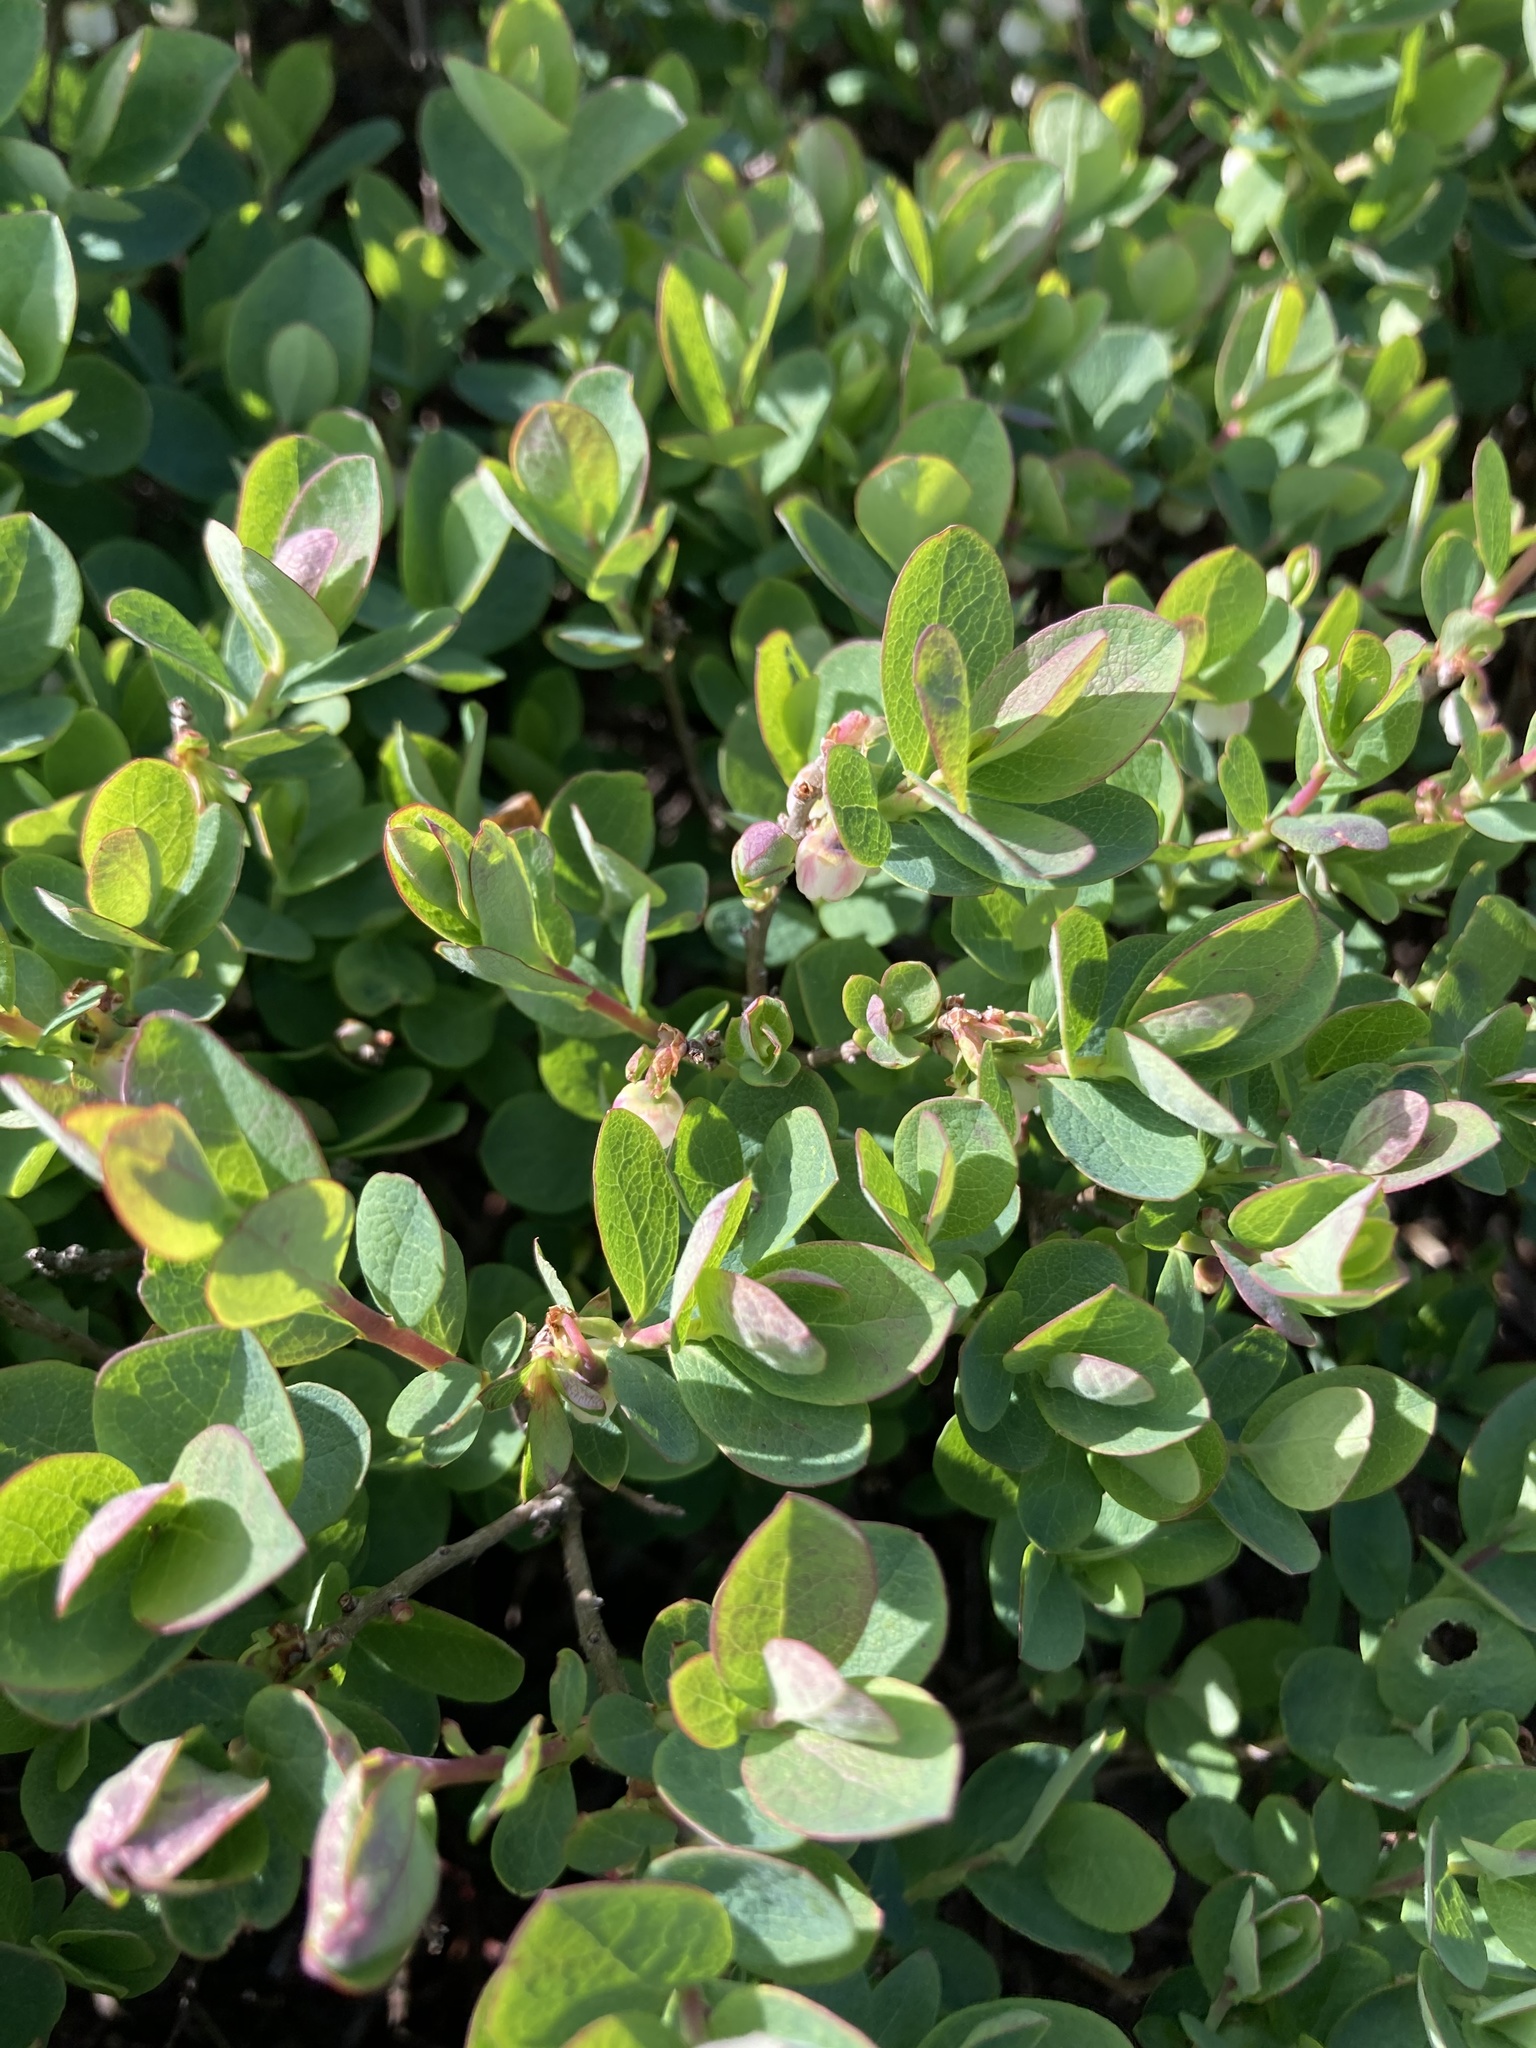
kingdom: Plantae
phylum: Tracheophyta
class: Magnoliopsida
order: Ericales
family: Ericaceae
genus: Vaccinium
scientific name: Vaccinium uliginosum
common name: Bog bilberry
